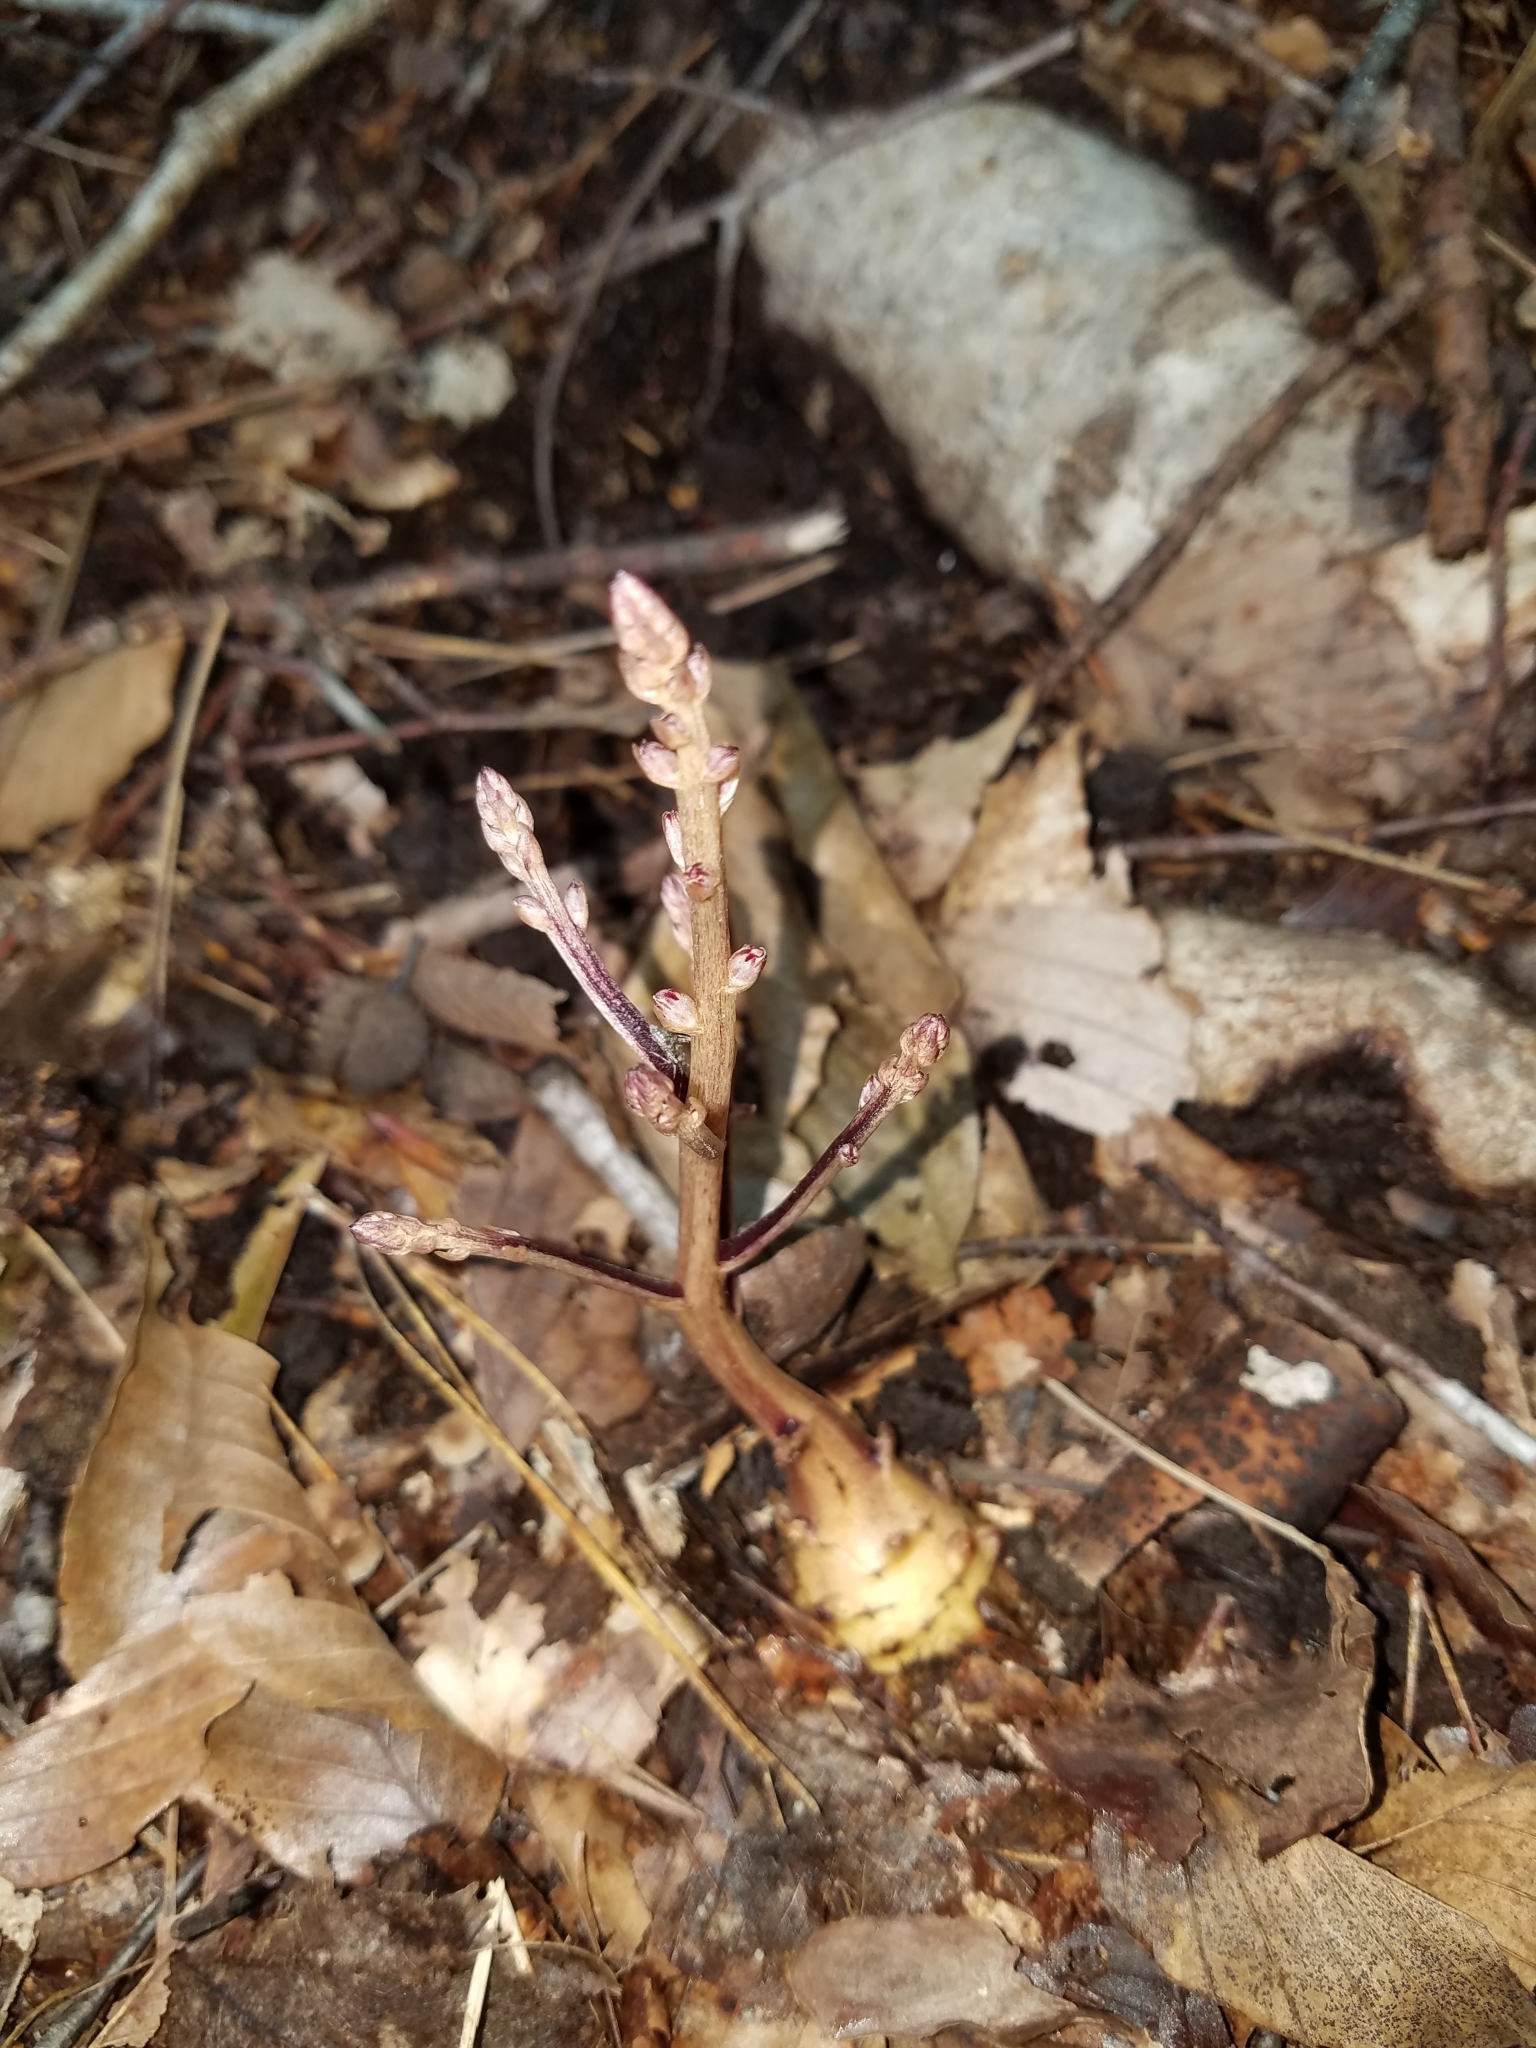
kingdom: Plantae
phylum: Tracheophyta
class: Magnoliopsida
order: Lamiales
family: Orobanchaceae
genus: Epifagus
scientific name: Epifagus virginiana
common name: Beechdrops
